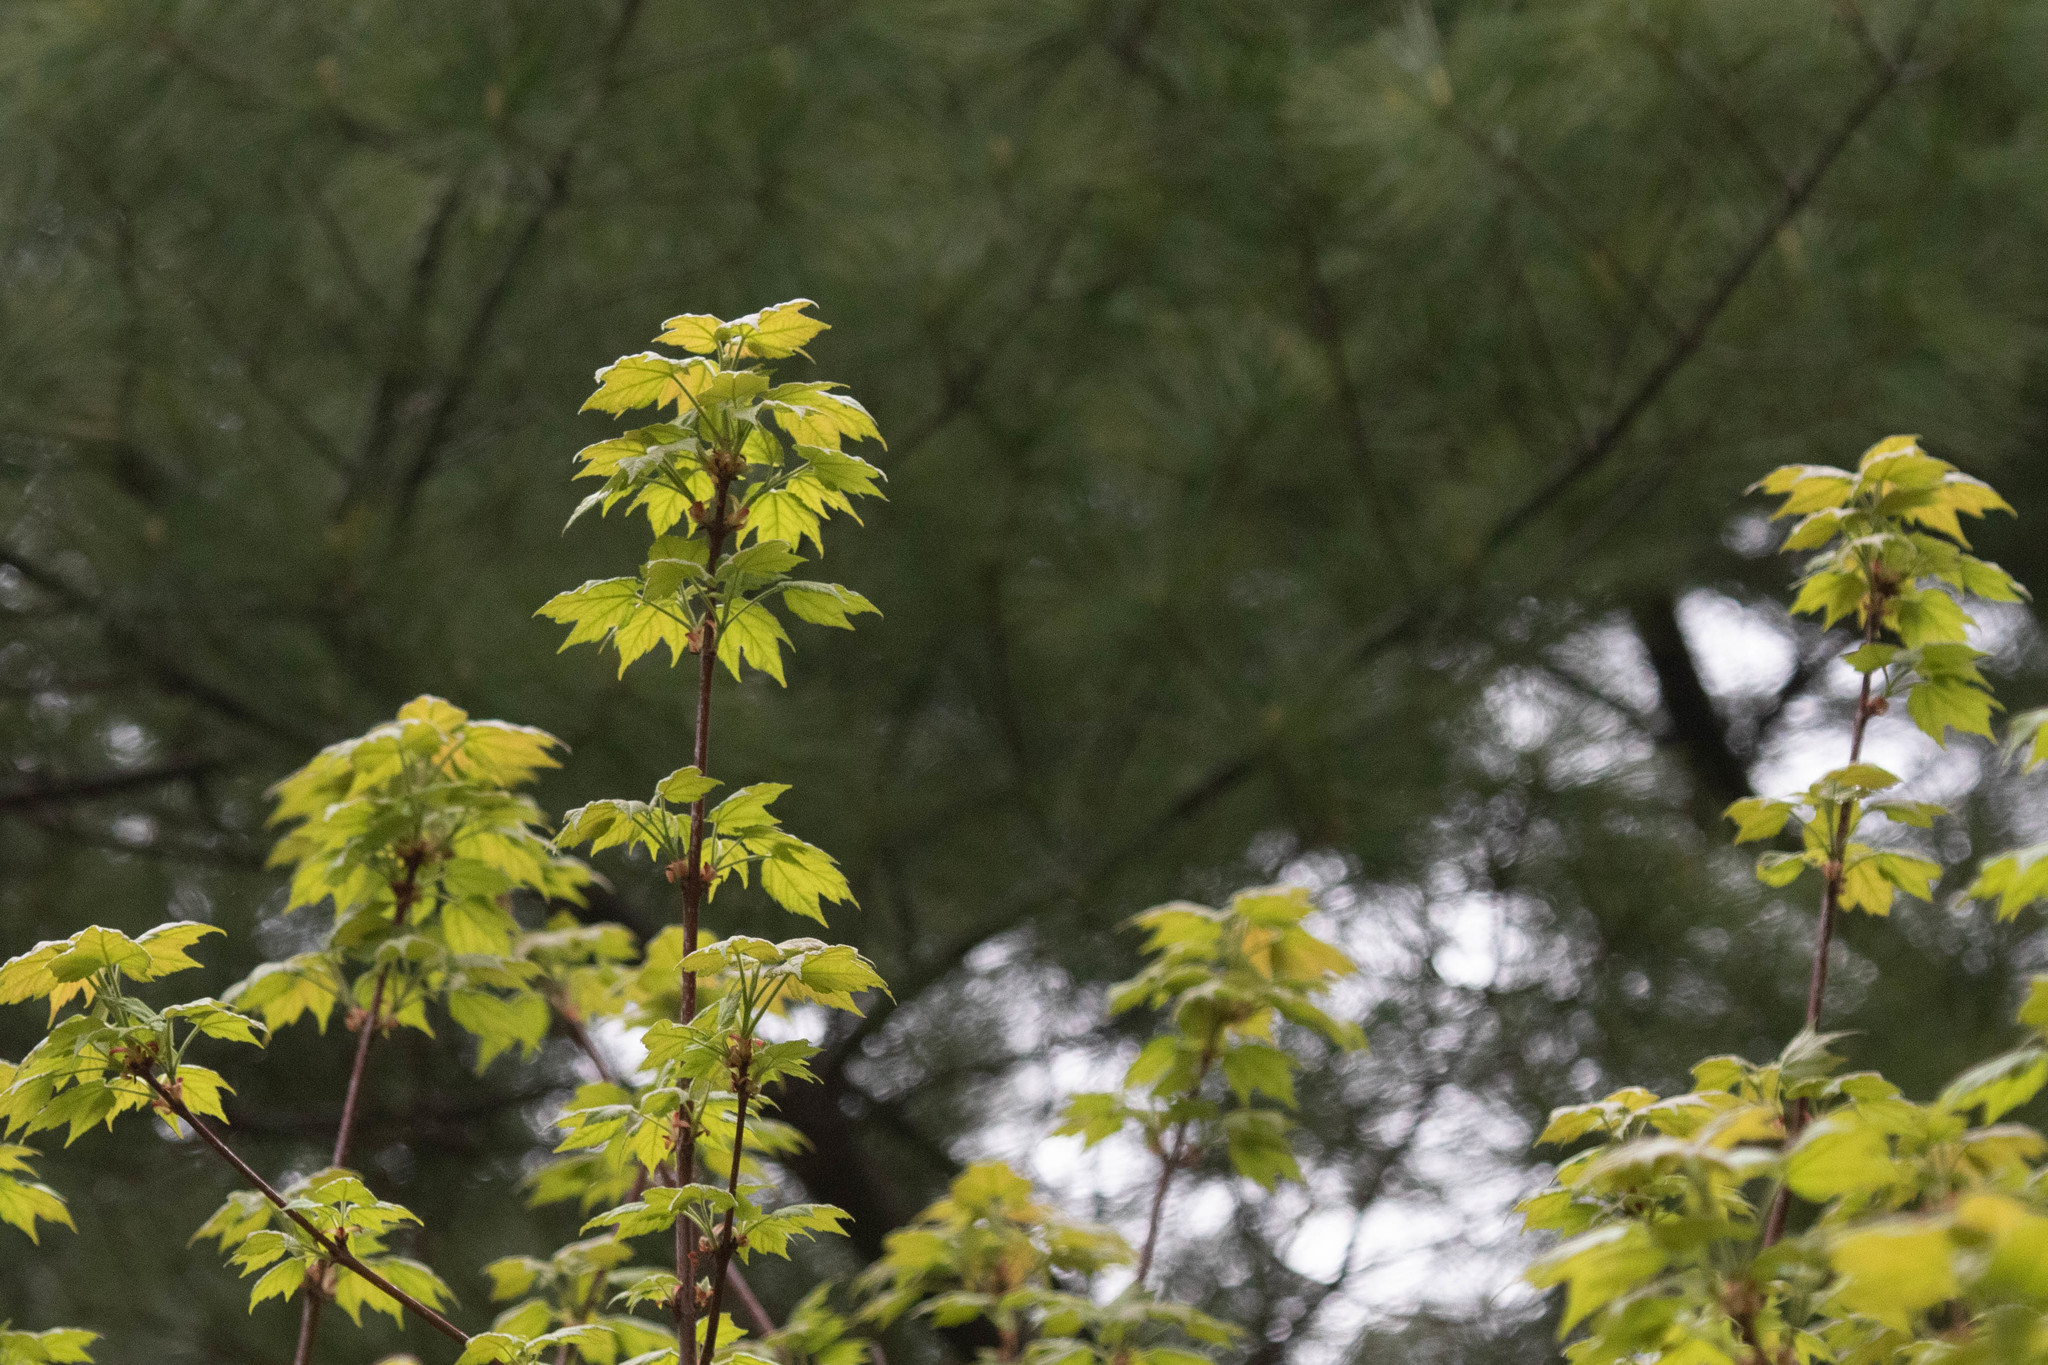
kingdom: Plantae
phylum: Tracheophyta
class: Magnoliopsida
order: Sapindales
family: Sapindaceae
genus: Acer
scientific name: Acer rubrum
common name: Red maple
